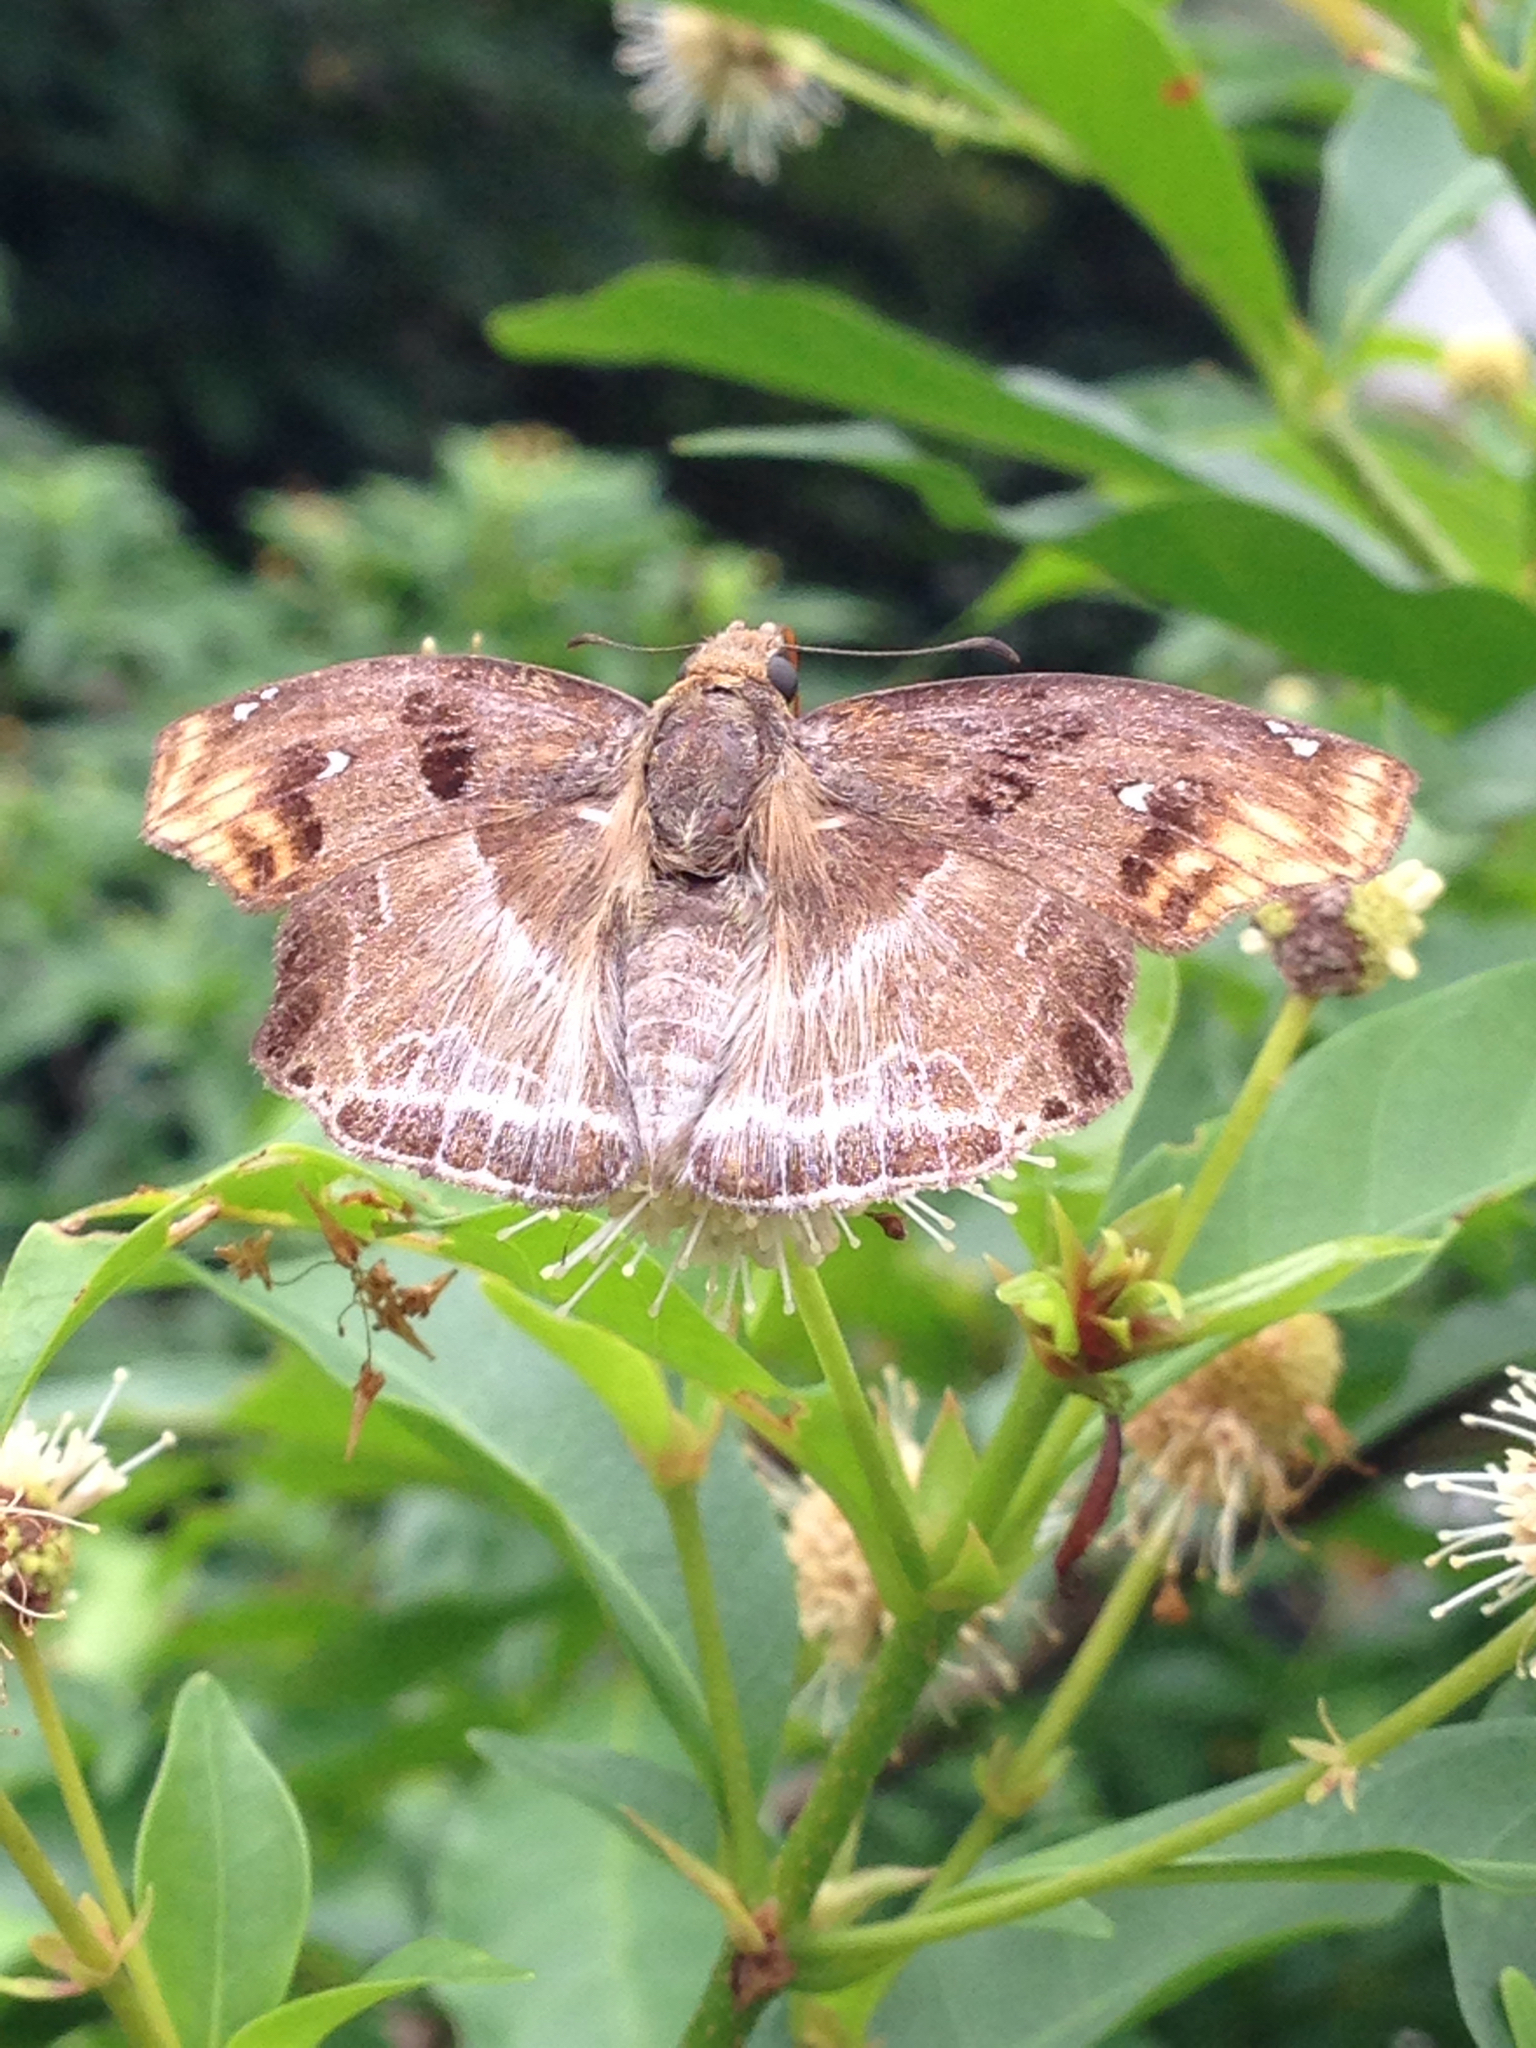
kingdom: Animalia
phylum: Arthropoda
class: Insecta
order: Lepidoptera
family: Hesperiidae
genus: Odontoptilum
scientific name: Odontoptilum angulata
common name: Chestnut banded angle
